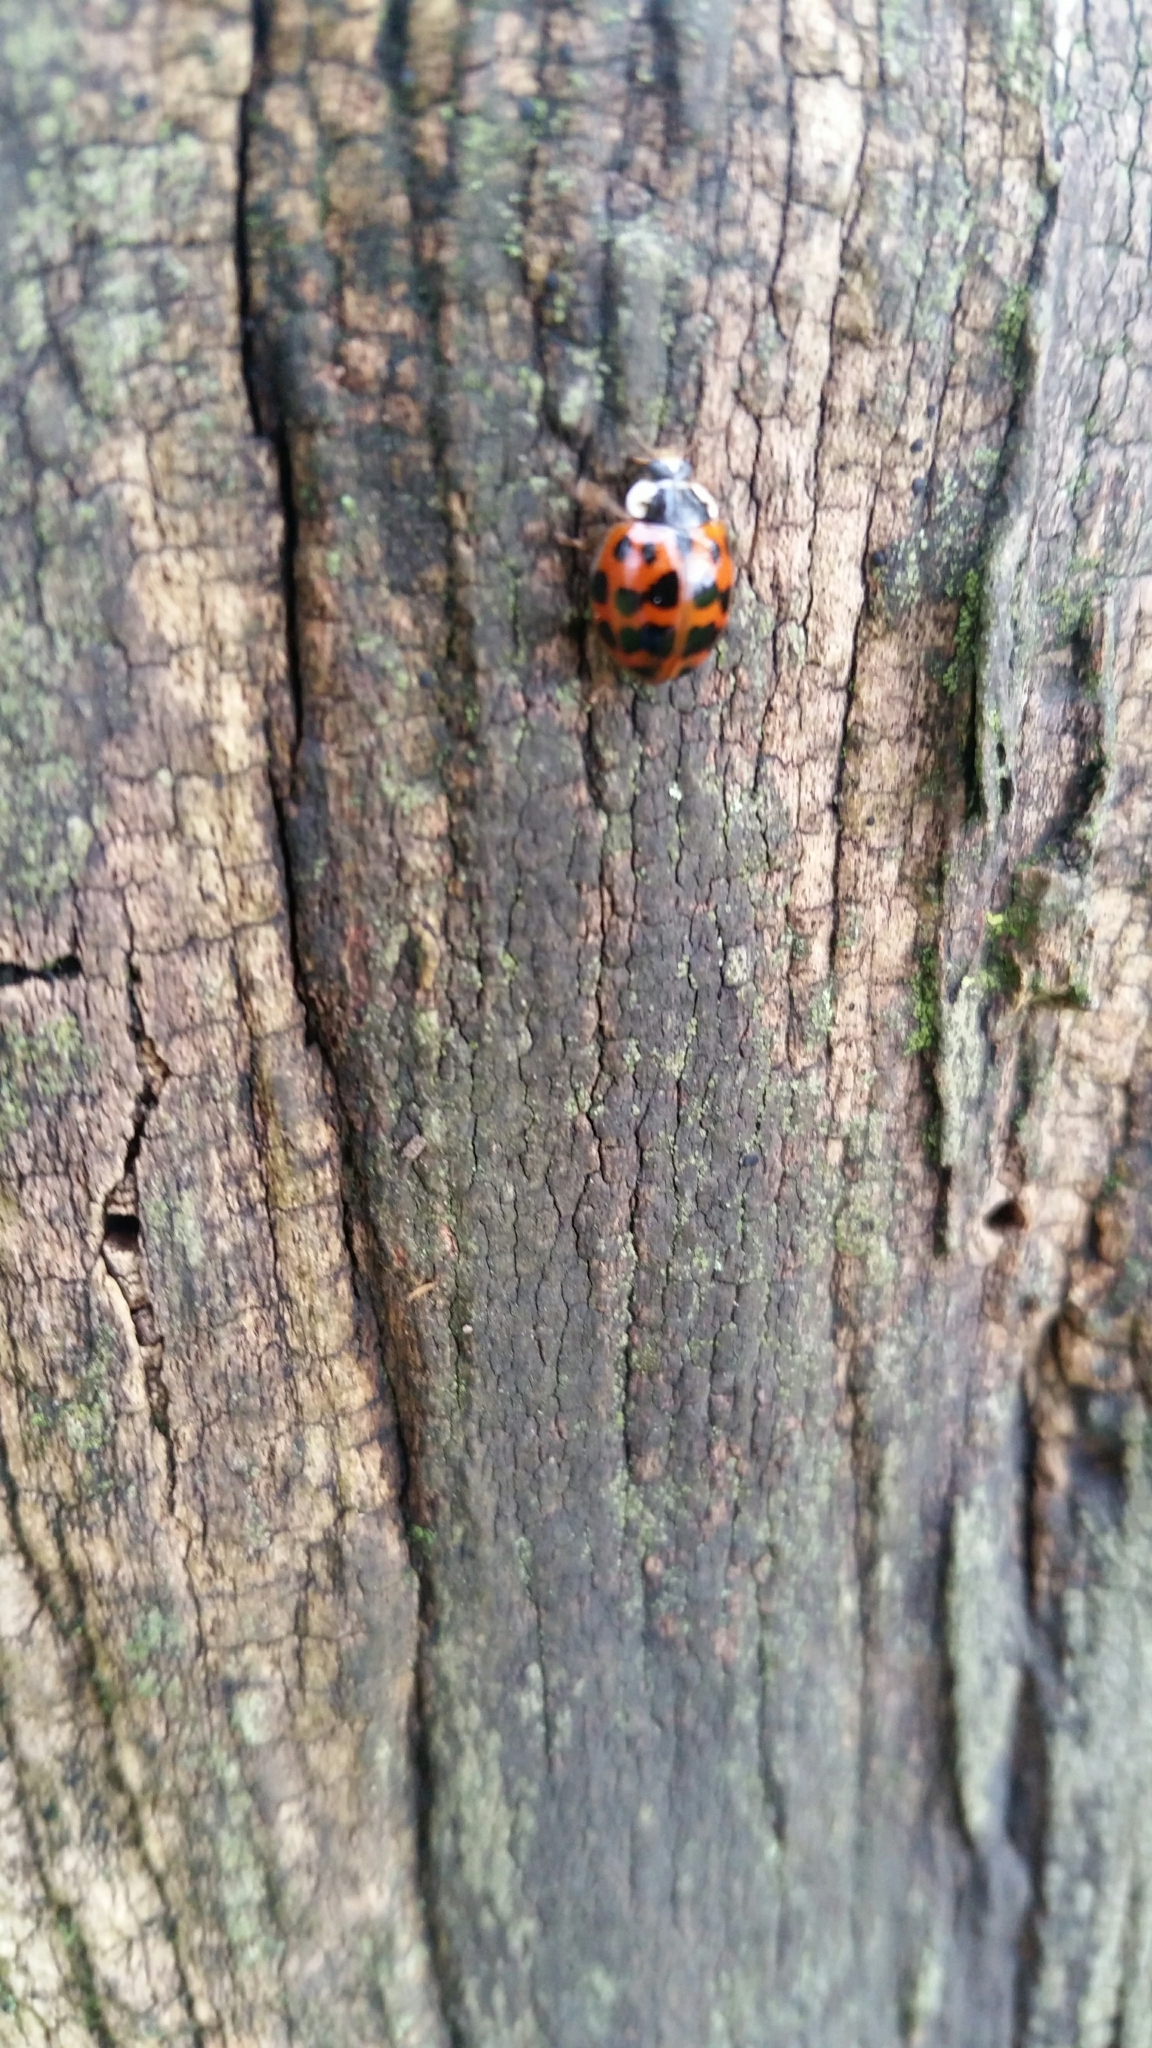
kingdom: Animalia
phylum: Arthropoda
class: Insecta
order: Coleoptera
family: Coccinellidae
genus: Harmonia
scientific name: Harmonia axyridis
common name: Harlequin ladybird
